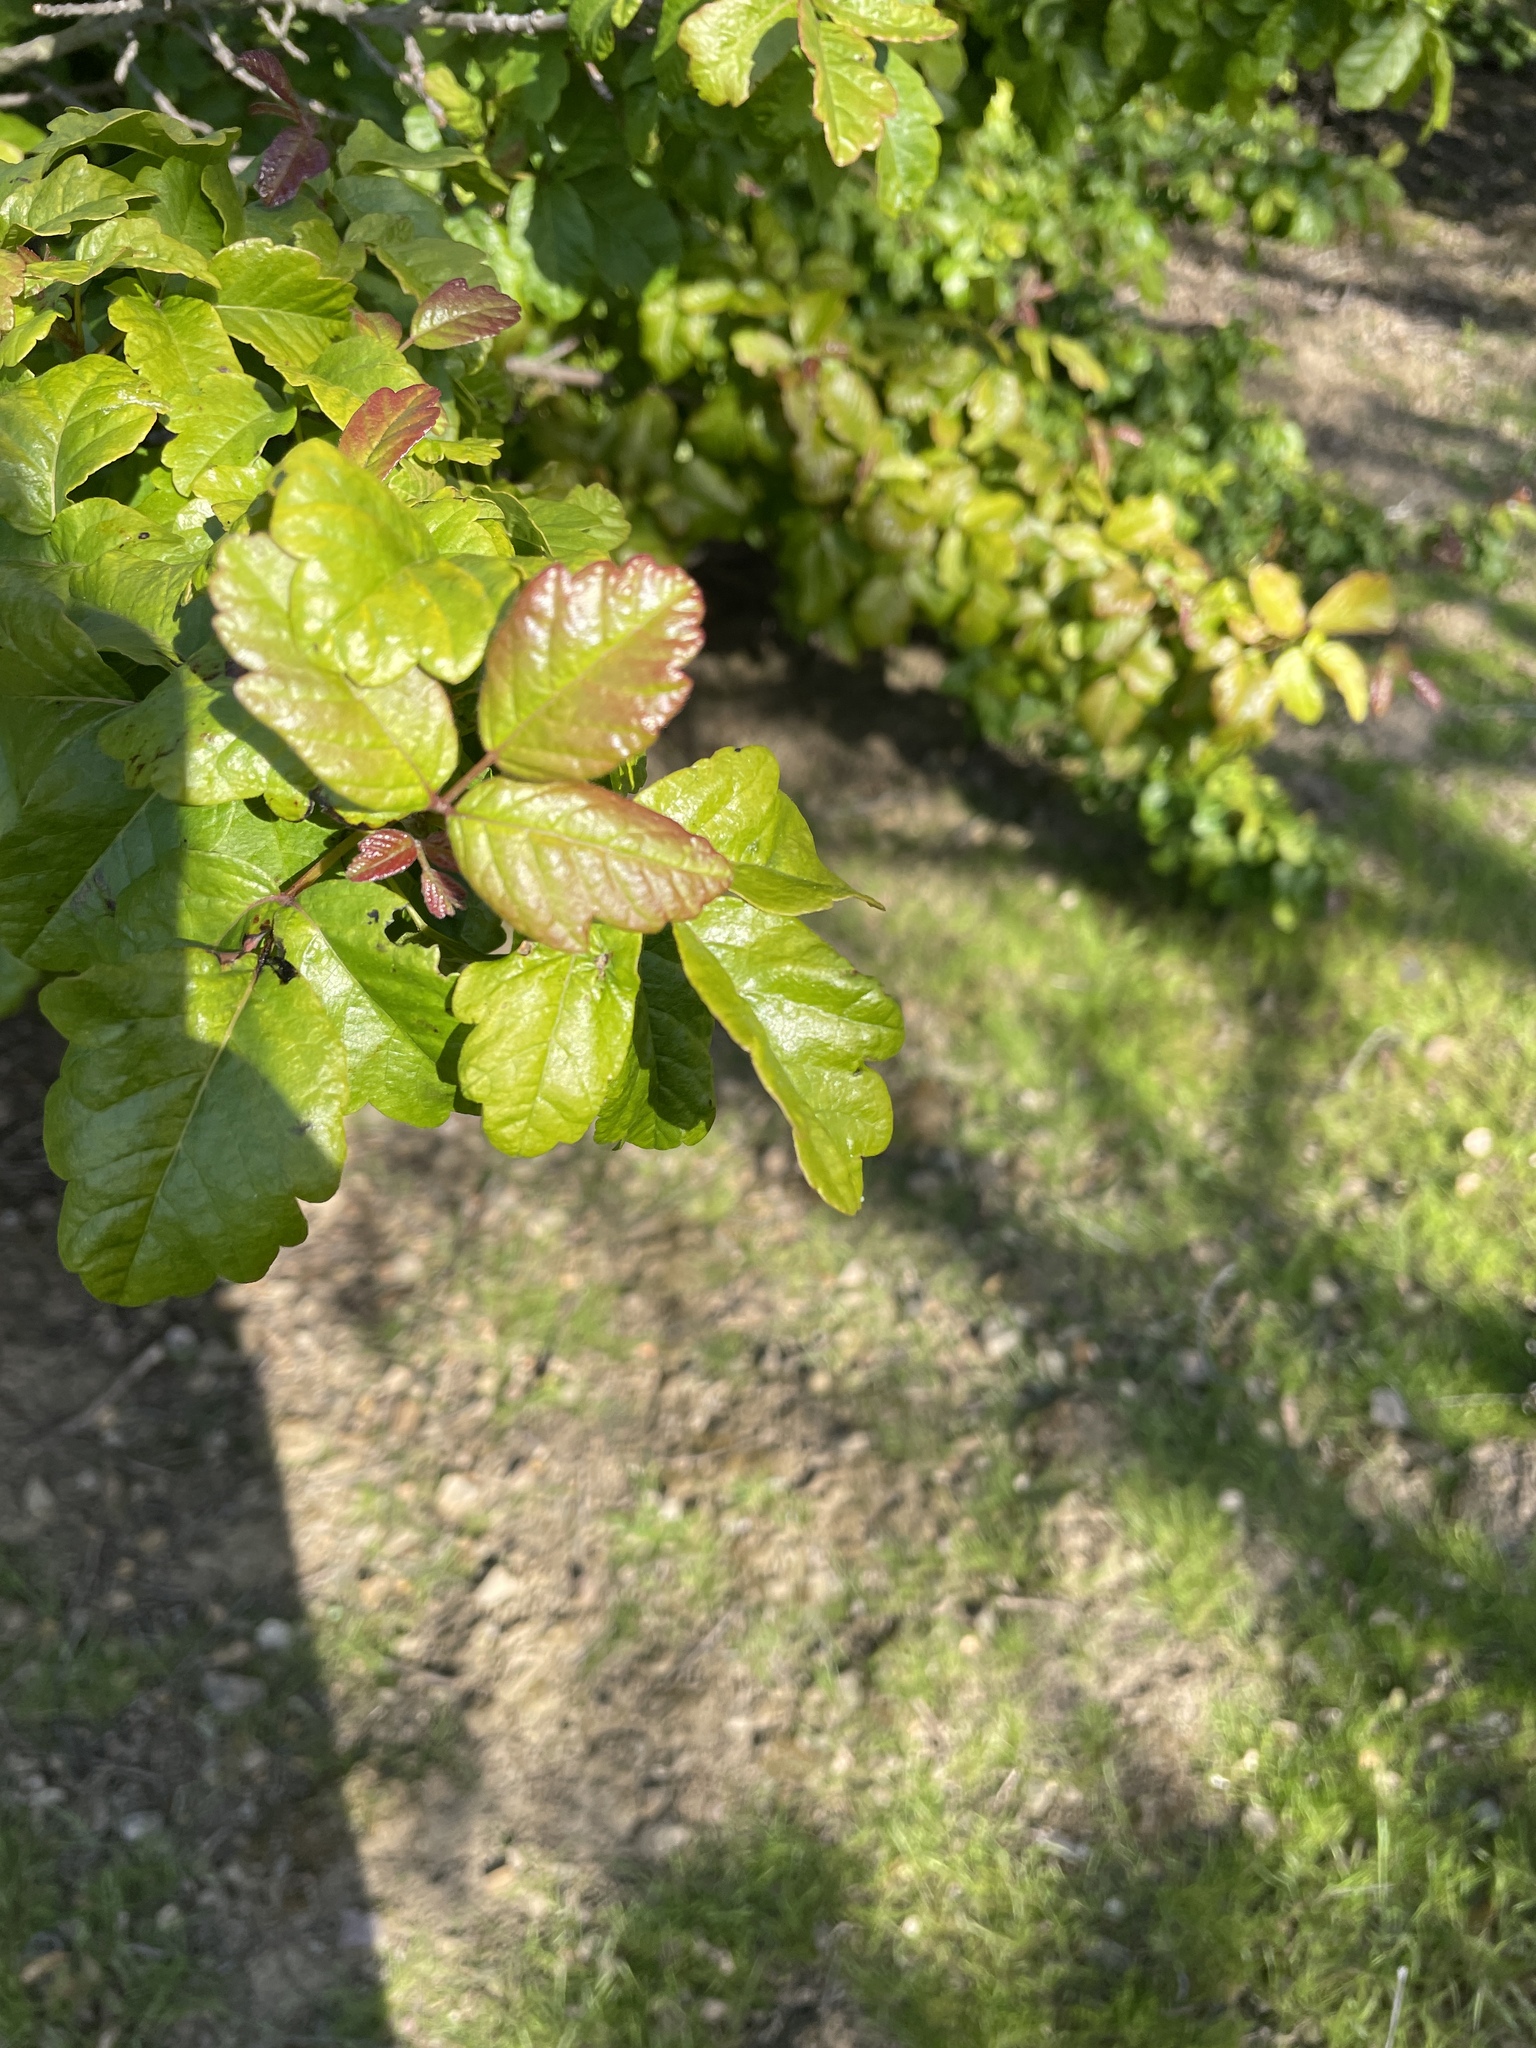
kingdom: Plantae
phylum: Tracheophyta
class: Magnoliopsida
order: Sapindales
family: Anacardiaceae
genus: Toxicodendron
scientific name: Toxicodendron diversilobum
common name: Pacific poison-oak
